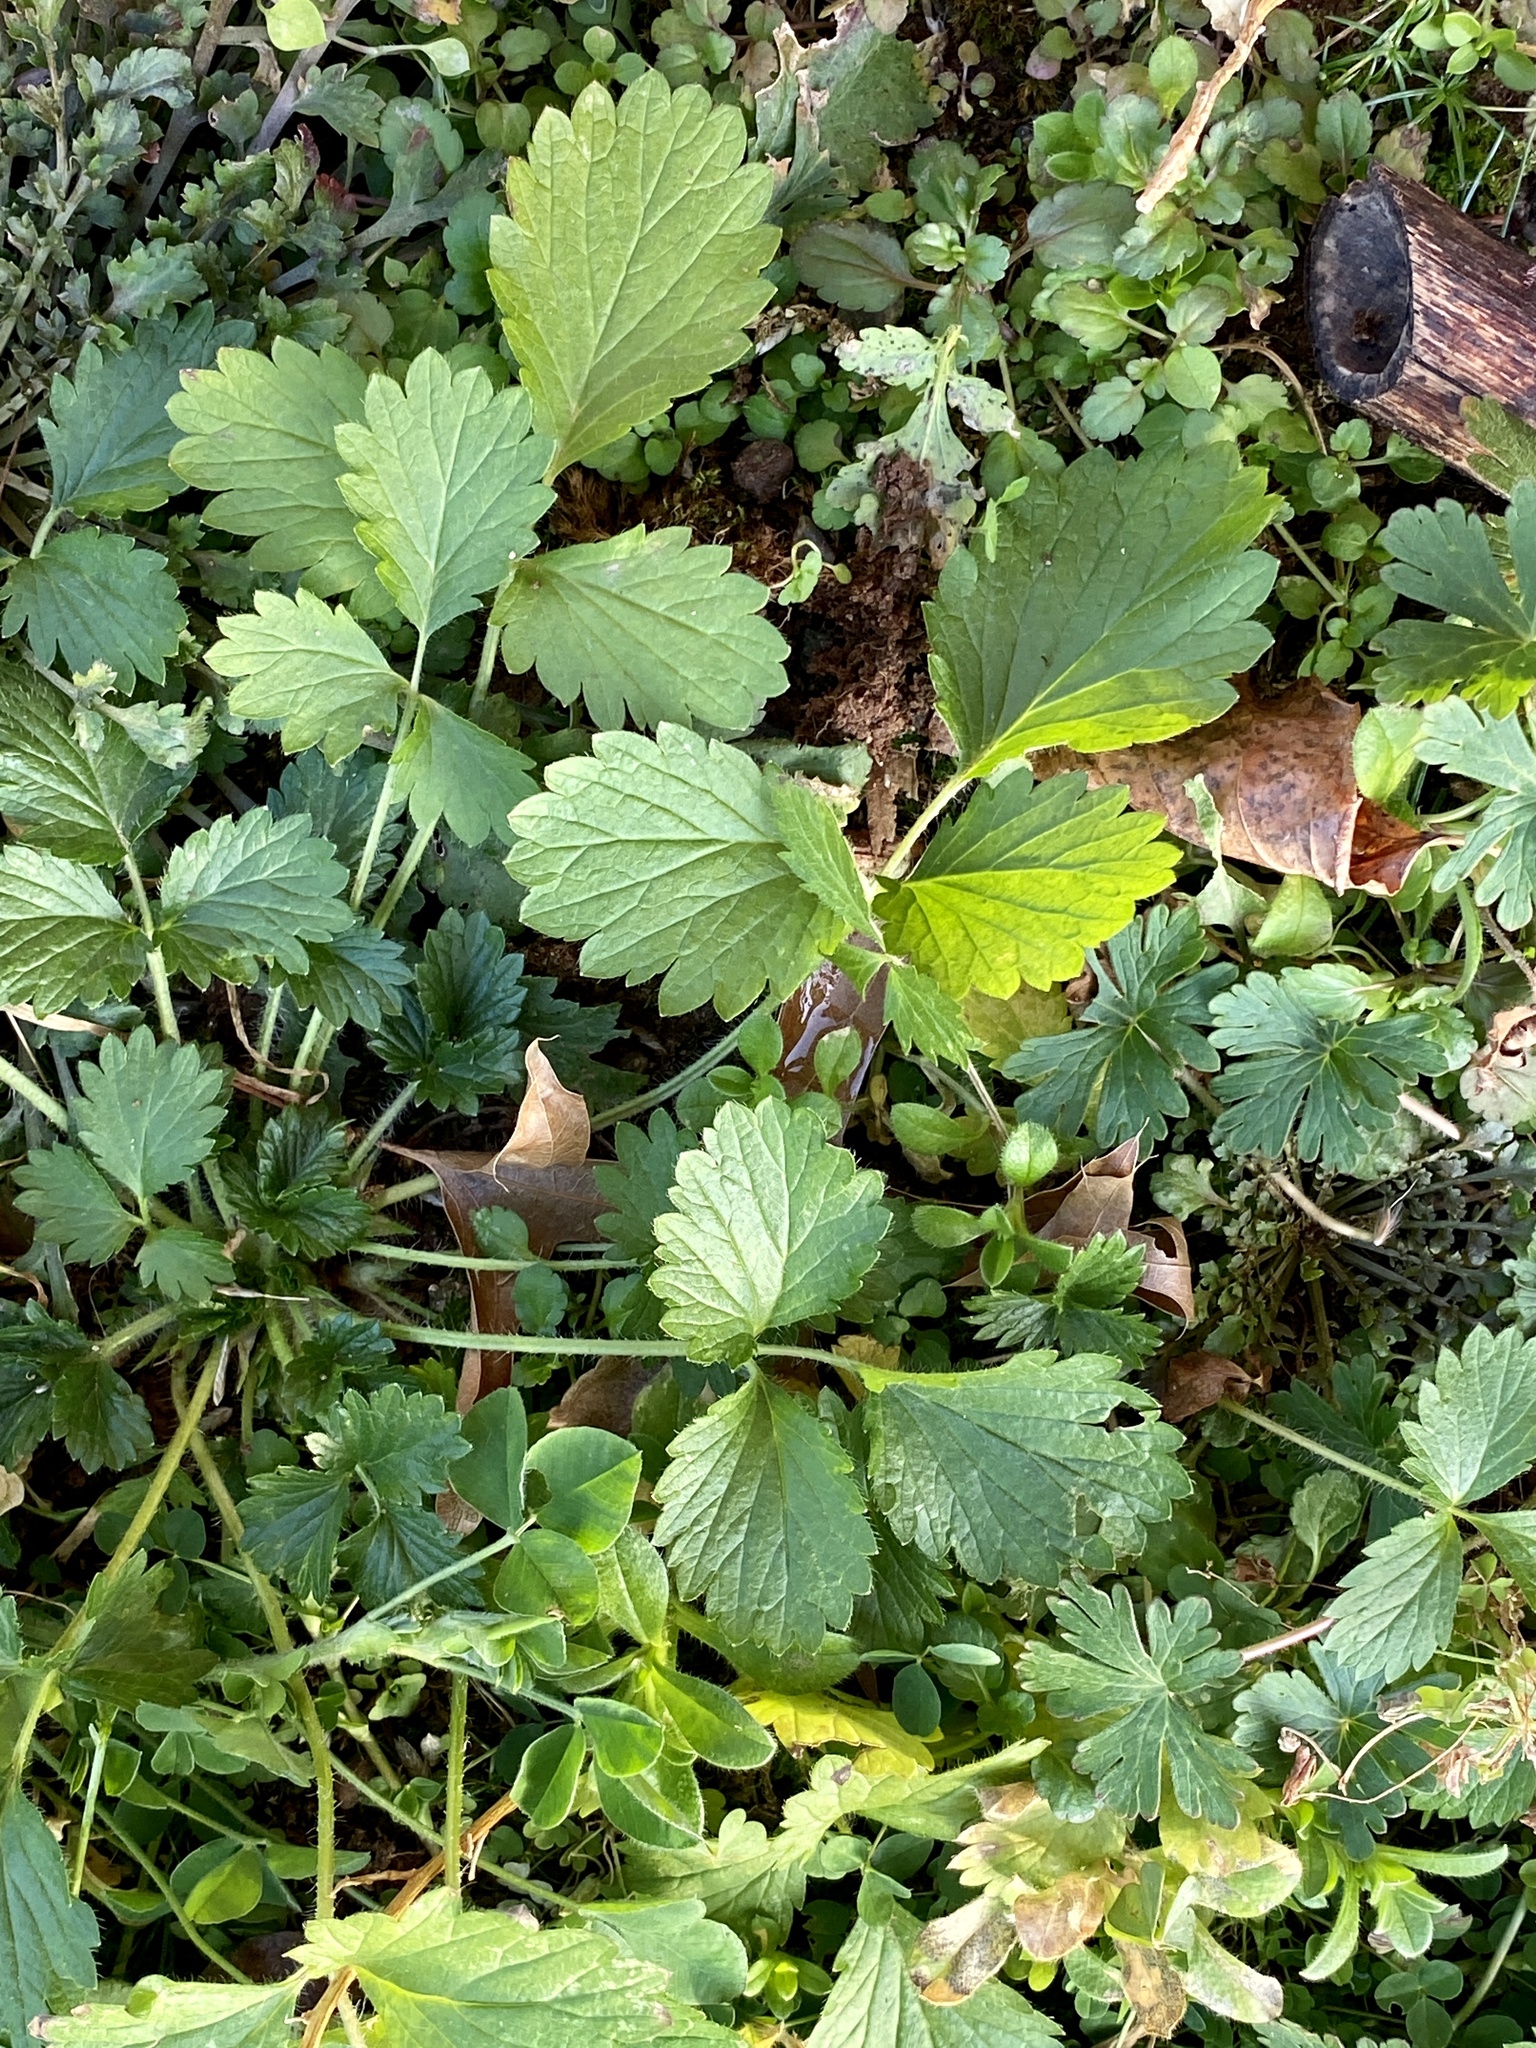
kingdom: Plantae
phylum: Tracheophyta
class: Magnoliopsida
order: Rosales
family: Rosaceae
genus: Potentilla
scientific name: Potentilla norvegica
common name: Ternate-leaved cinquefoil
